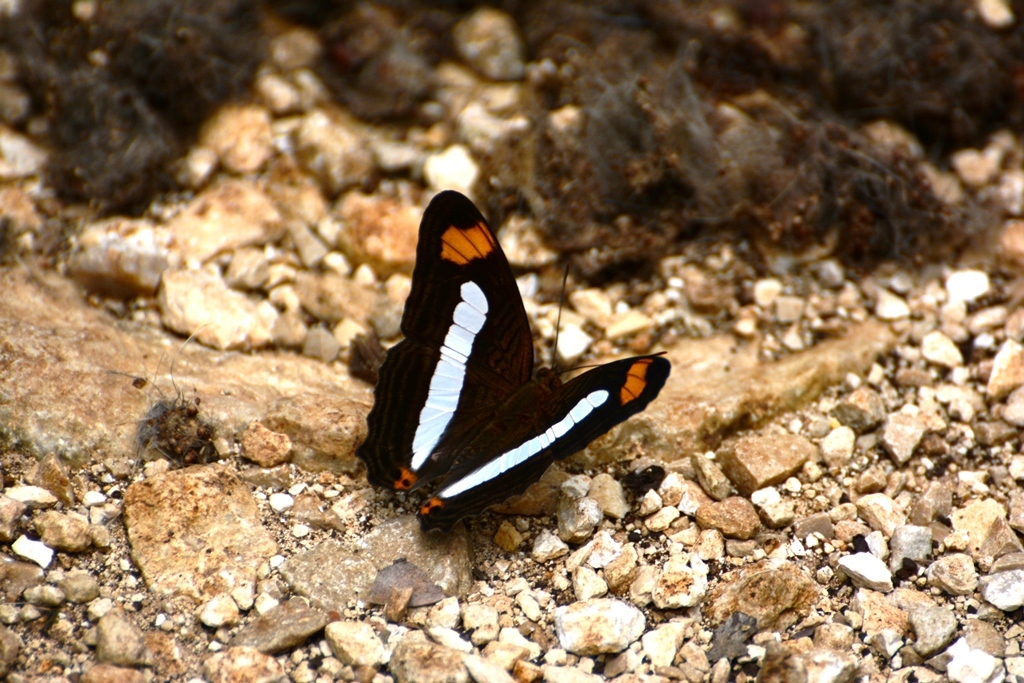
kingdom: Animalia
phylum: Arthropoda
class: Insecta
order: Lepidoptera
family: Nymphalidae
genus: Limenitis
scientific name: Limenitis iphiclus
